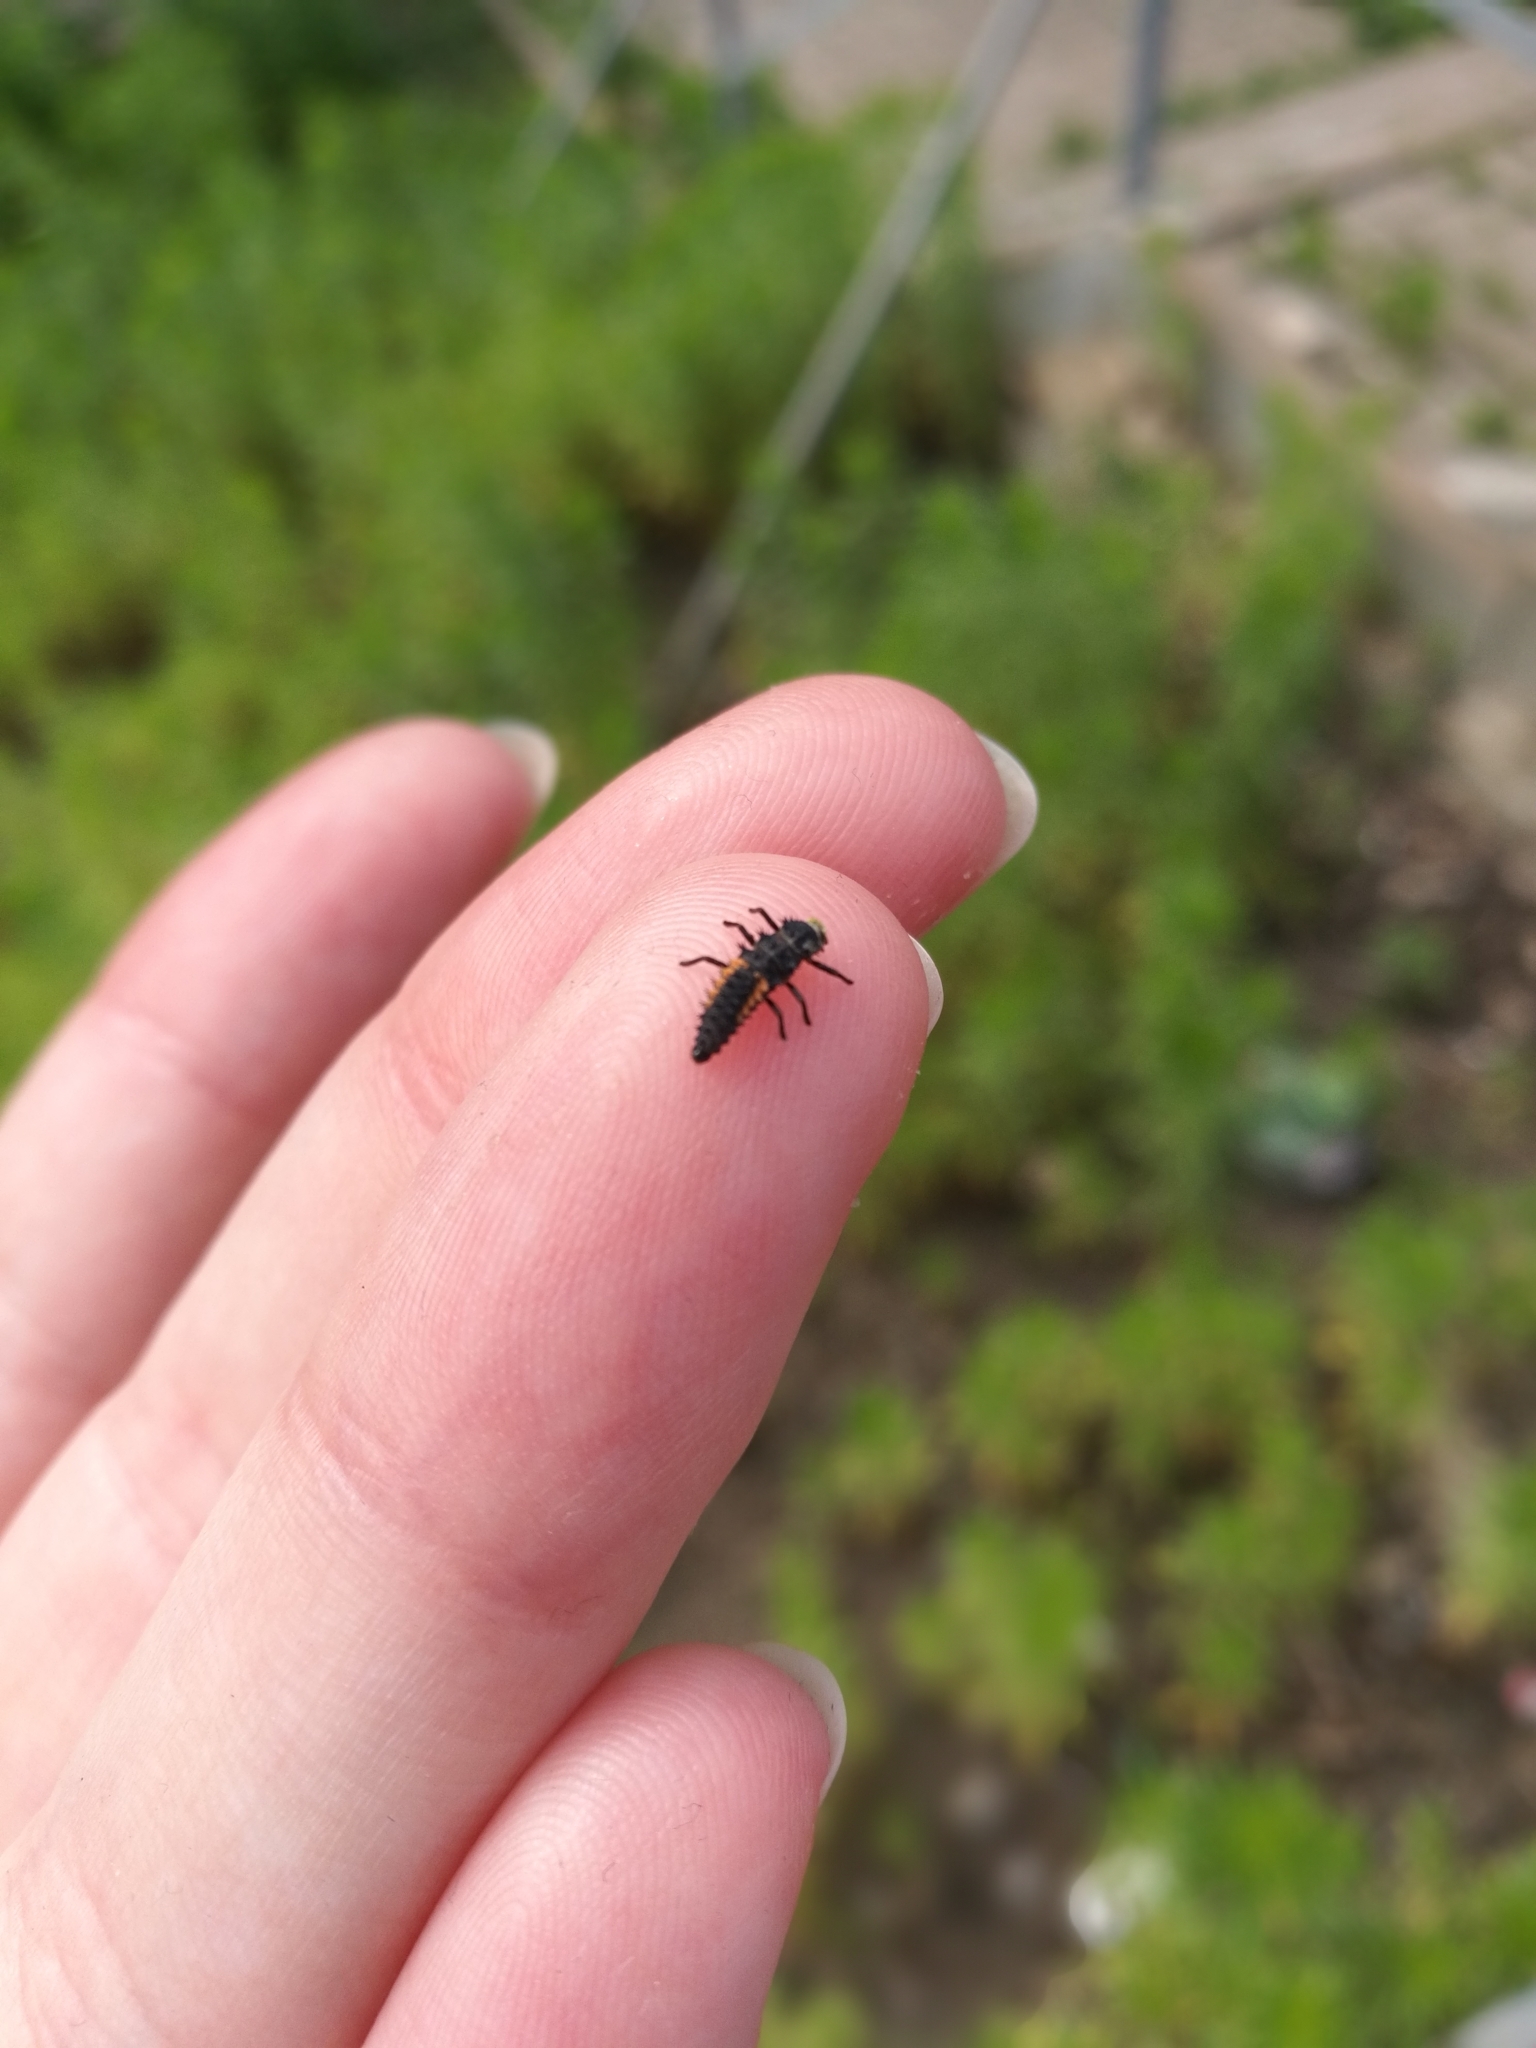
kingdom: Animalia
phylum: Arthropoda
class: Insecta
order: Coleoptera
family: Coccinellidae
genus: Harmonia
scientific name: Harmonia axyridis
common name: Harlequin ladybird
